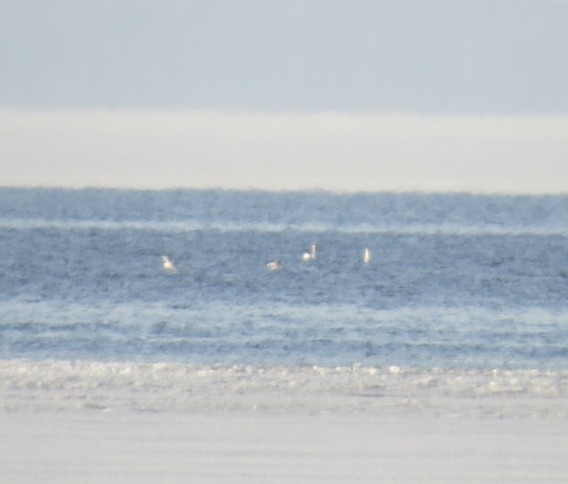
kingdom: Animalia
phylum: Chordata
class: Aves
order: Anseriformes
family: Anatidae
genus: Cygnus
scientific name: Cygnus
